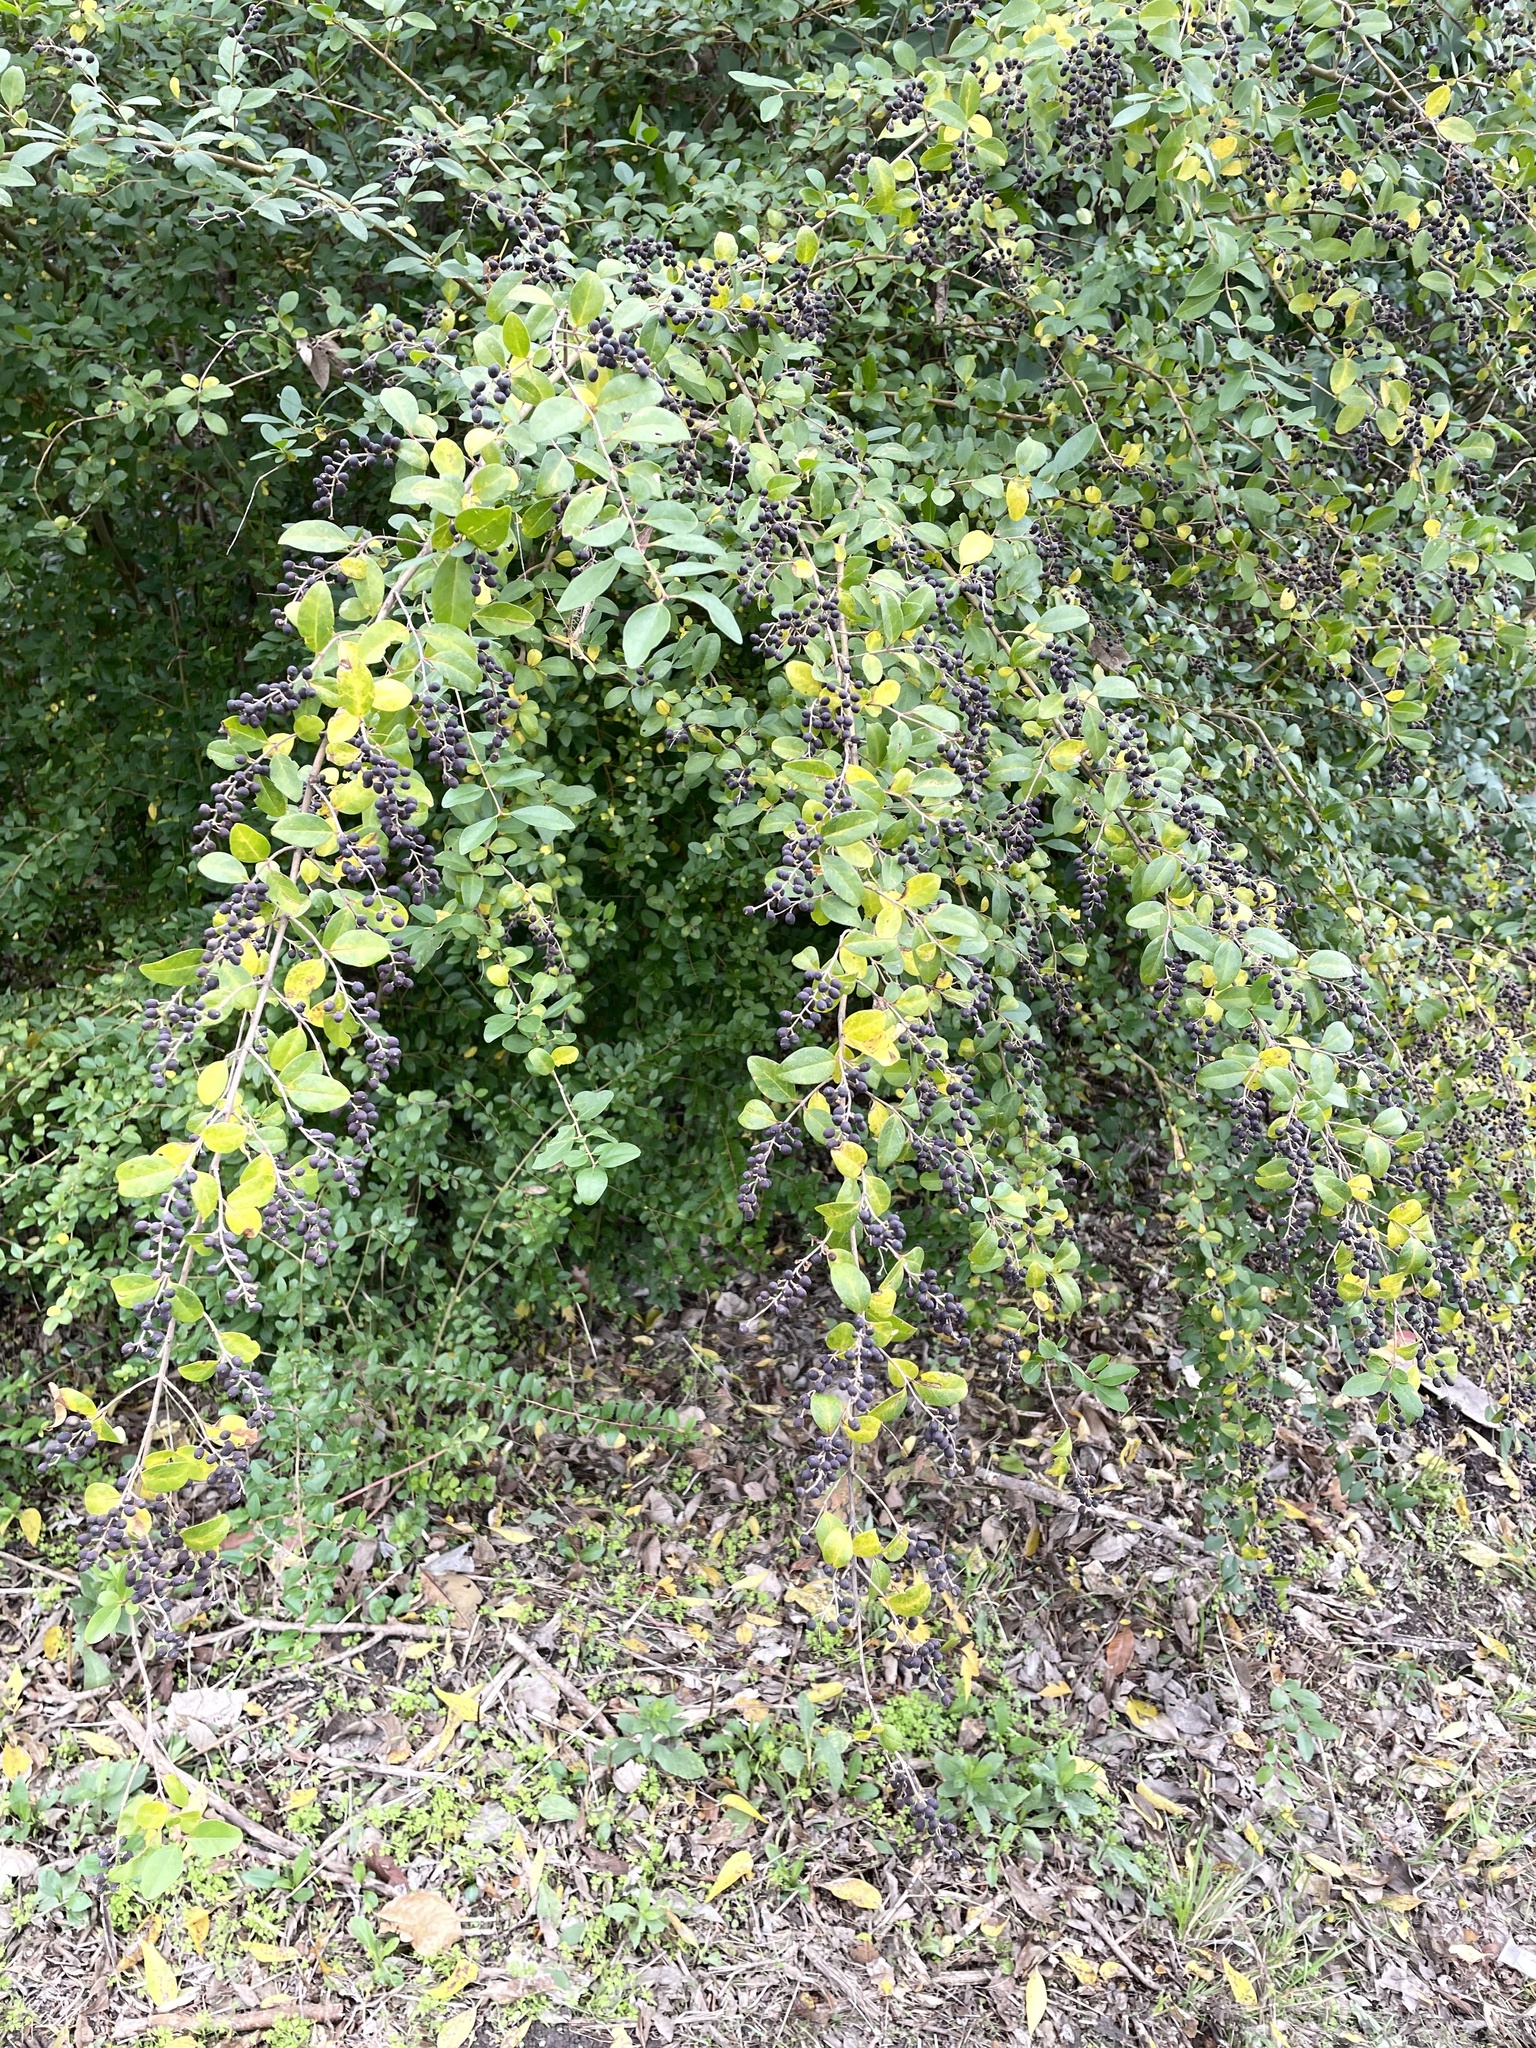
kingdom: Plantae
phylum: Tracheophyta
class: Magnoliopsida
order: Lamiales
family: Oleaceae
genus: Ligustrum
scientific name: Ligustrum sinense
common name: Chinese privet
